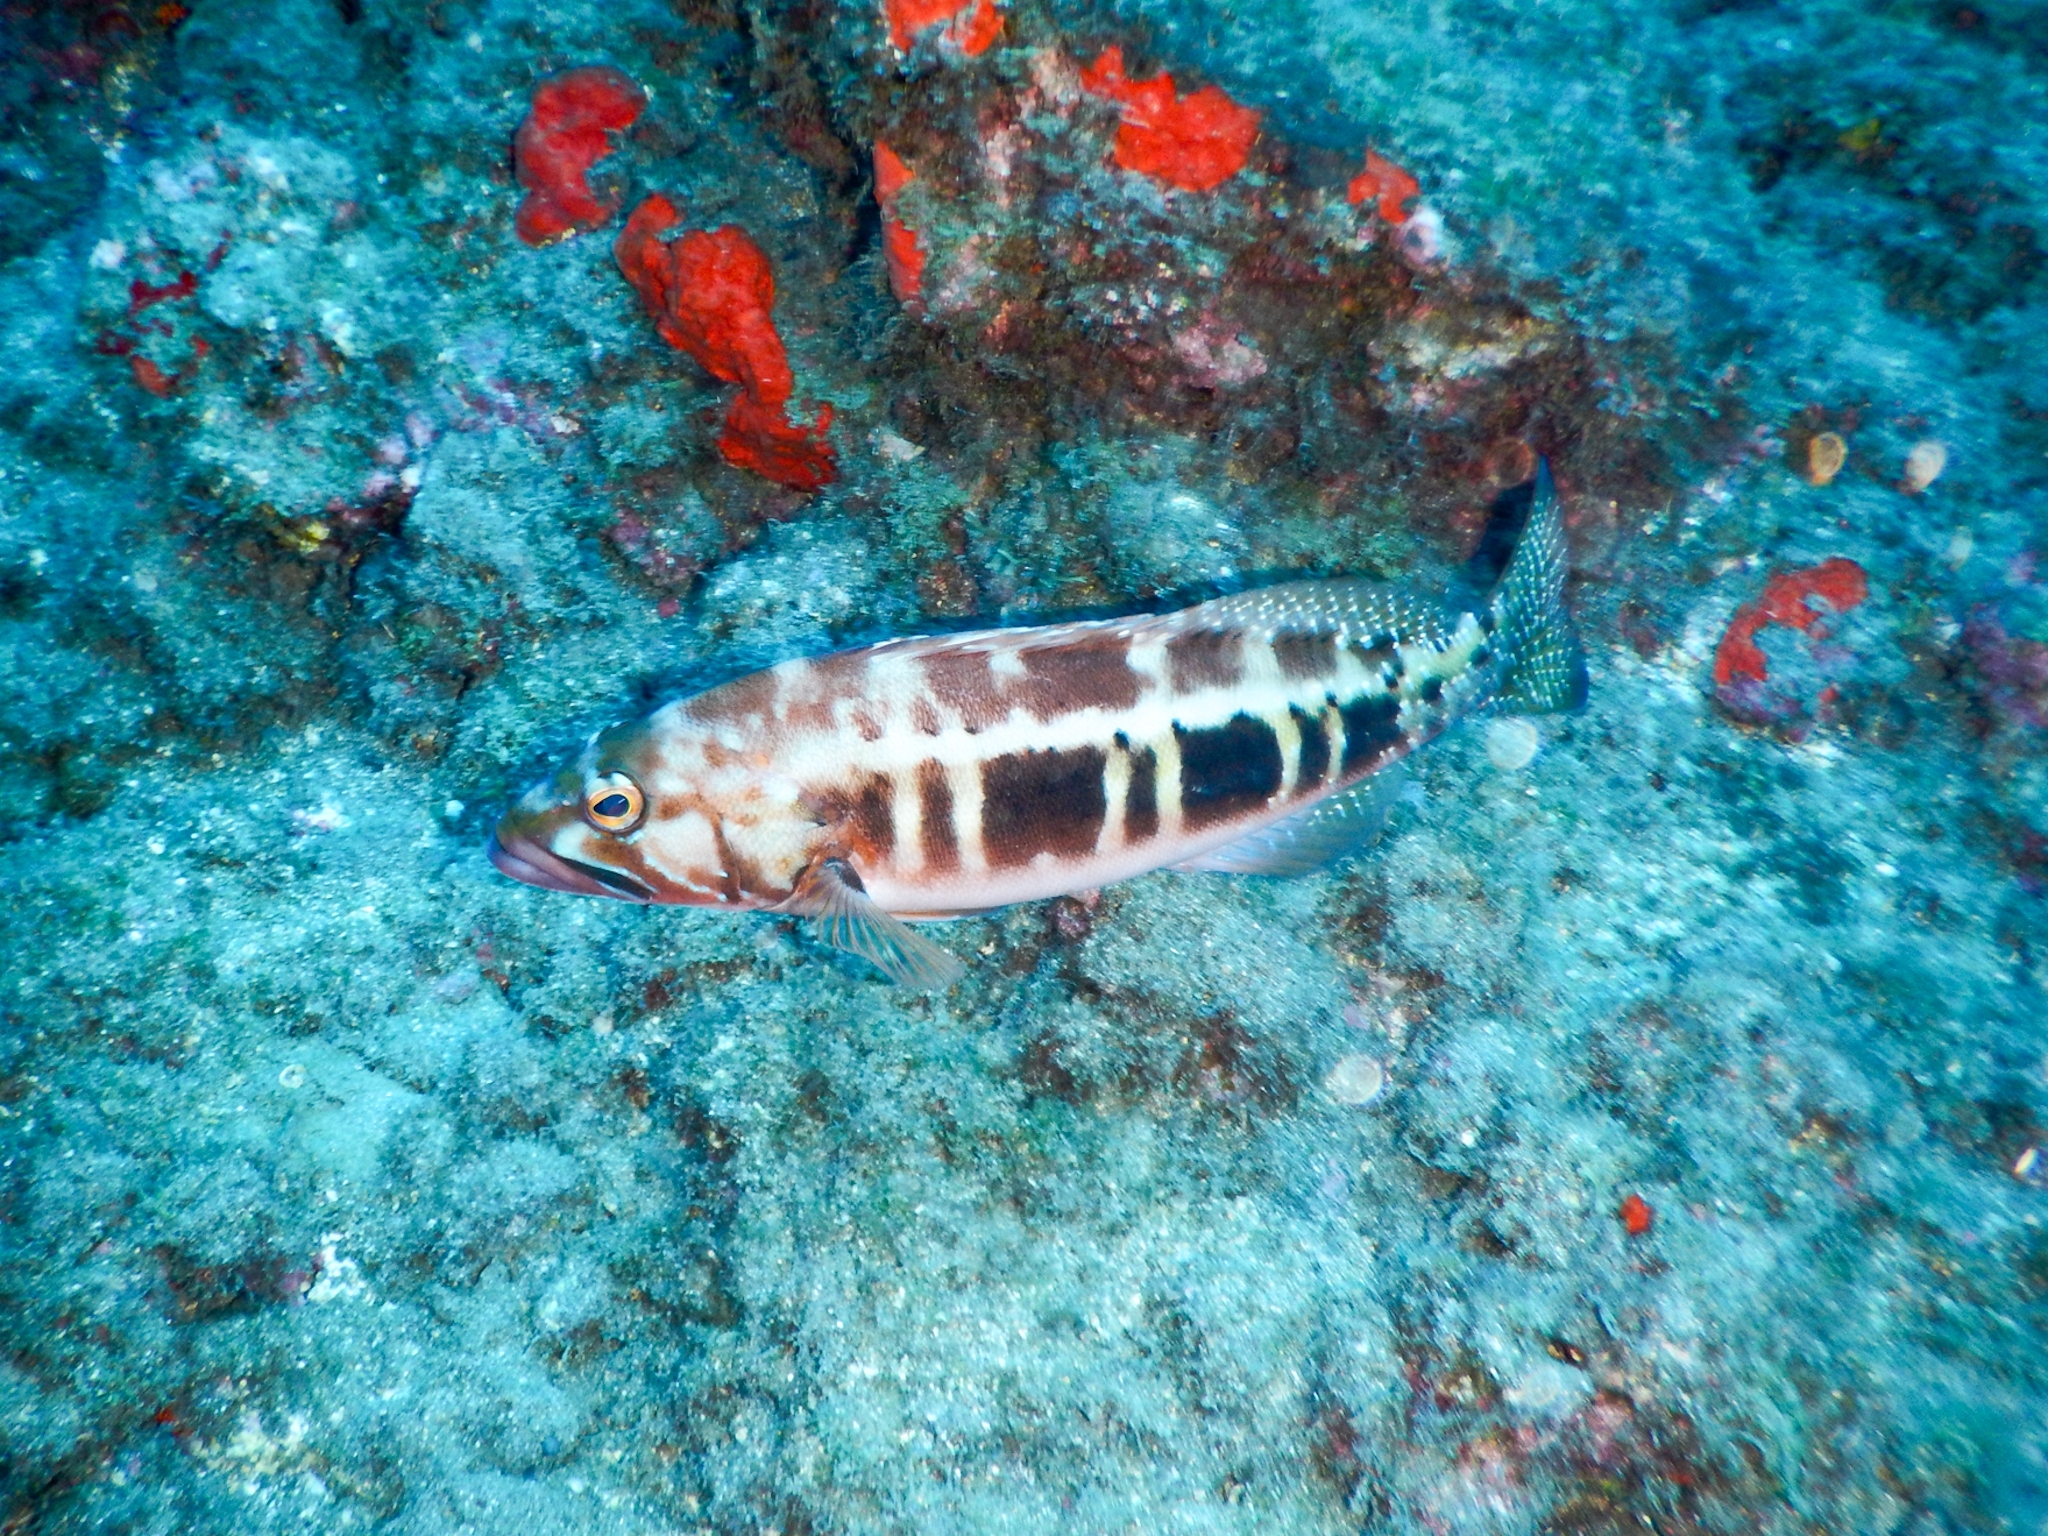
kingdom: Animalia
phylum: Chordata
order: Perciformes
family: Serranidae
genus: Serranus
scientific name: Serranus atricauda
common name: Blacktail comber
